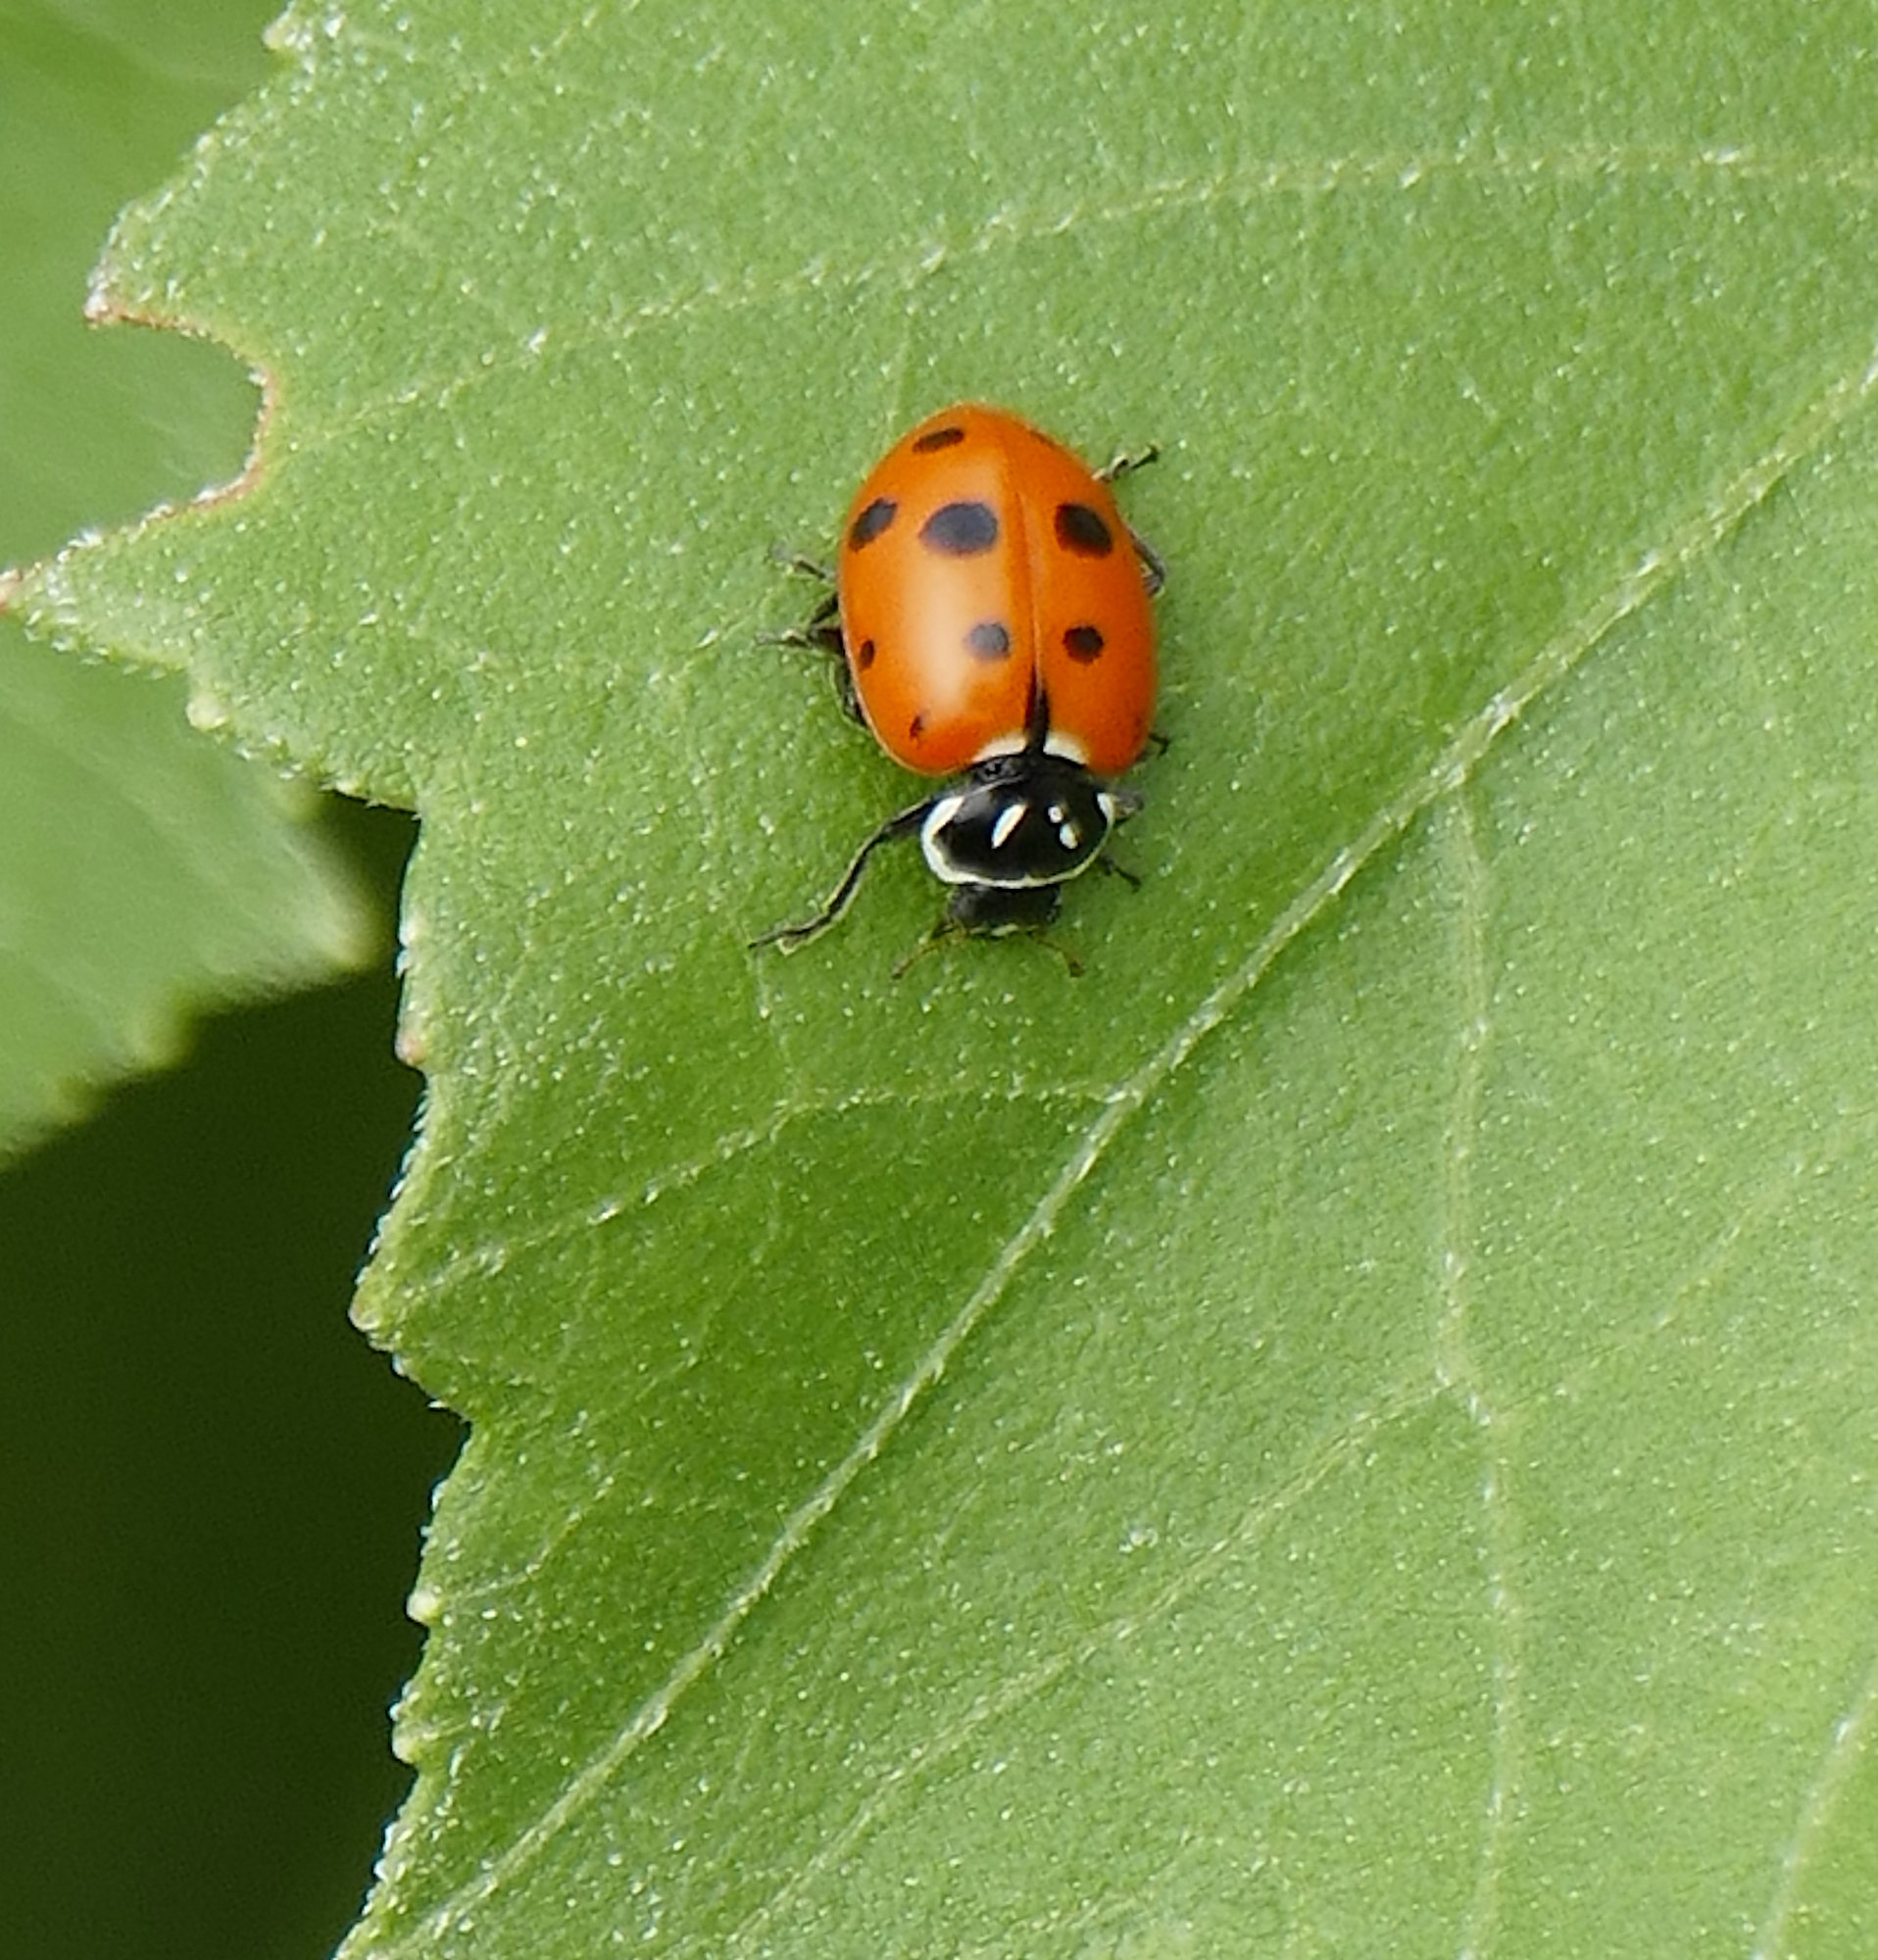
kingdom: Animalia
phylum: Arthropoda
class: Insecta
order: Coleoptera
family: Coccinellidae
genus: Hippodamia
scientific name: Hippodamia convergens
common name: Convergent lady beetle
